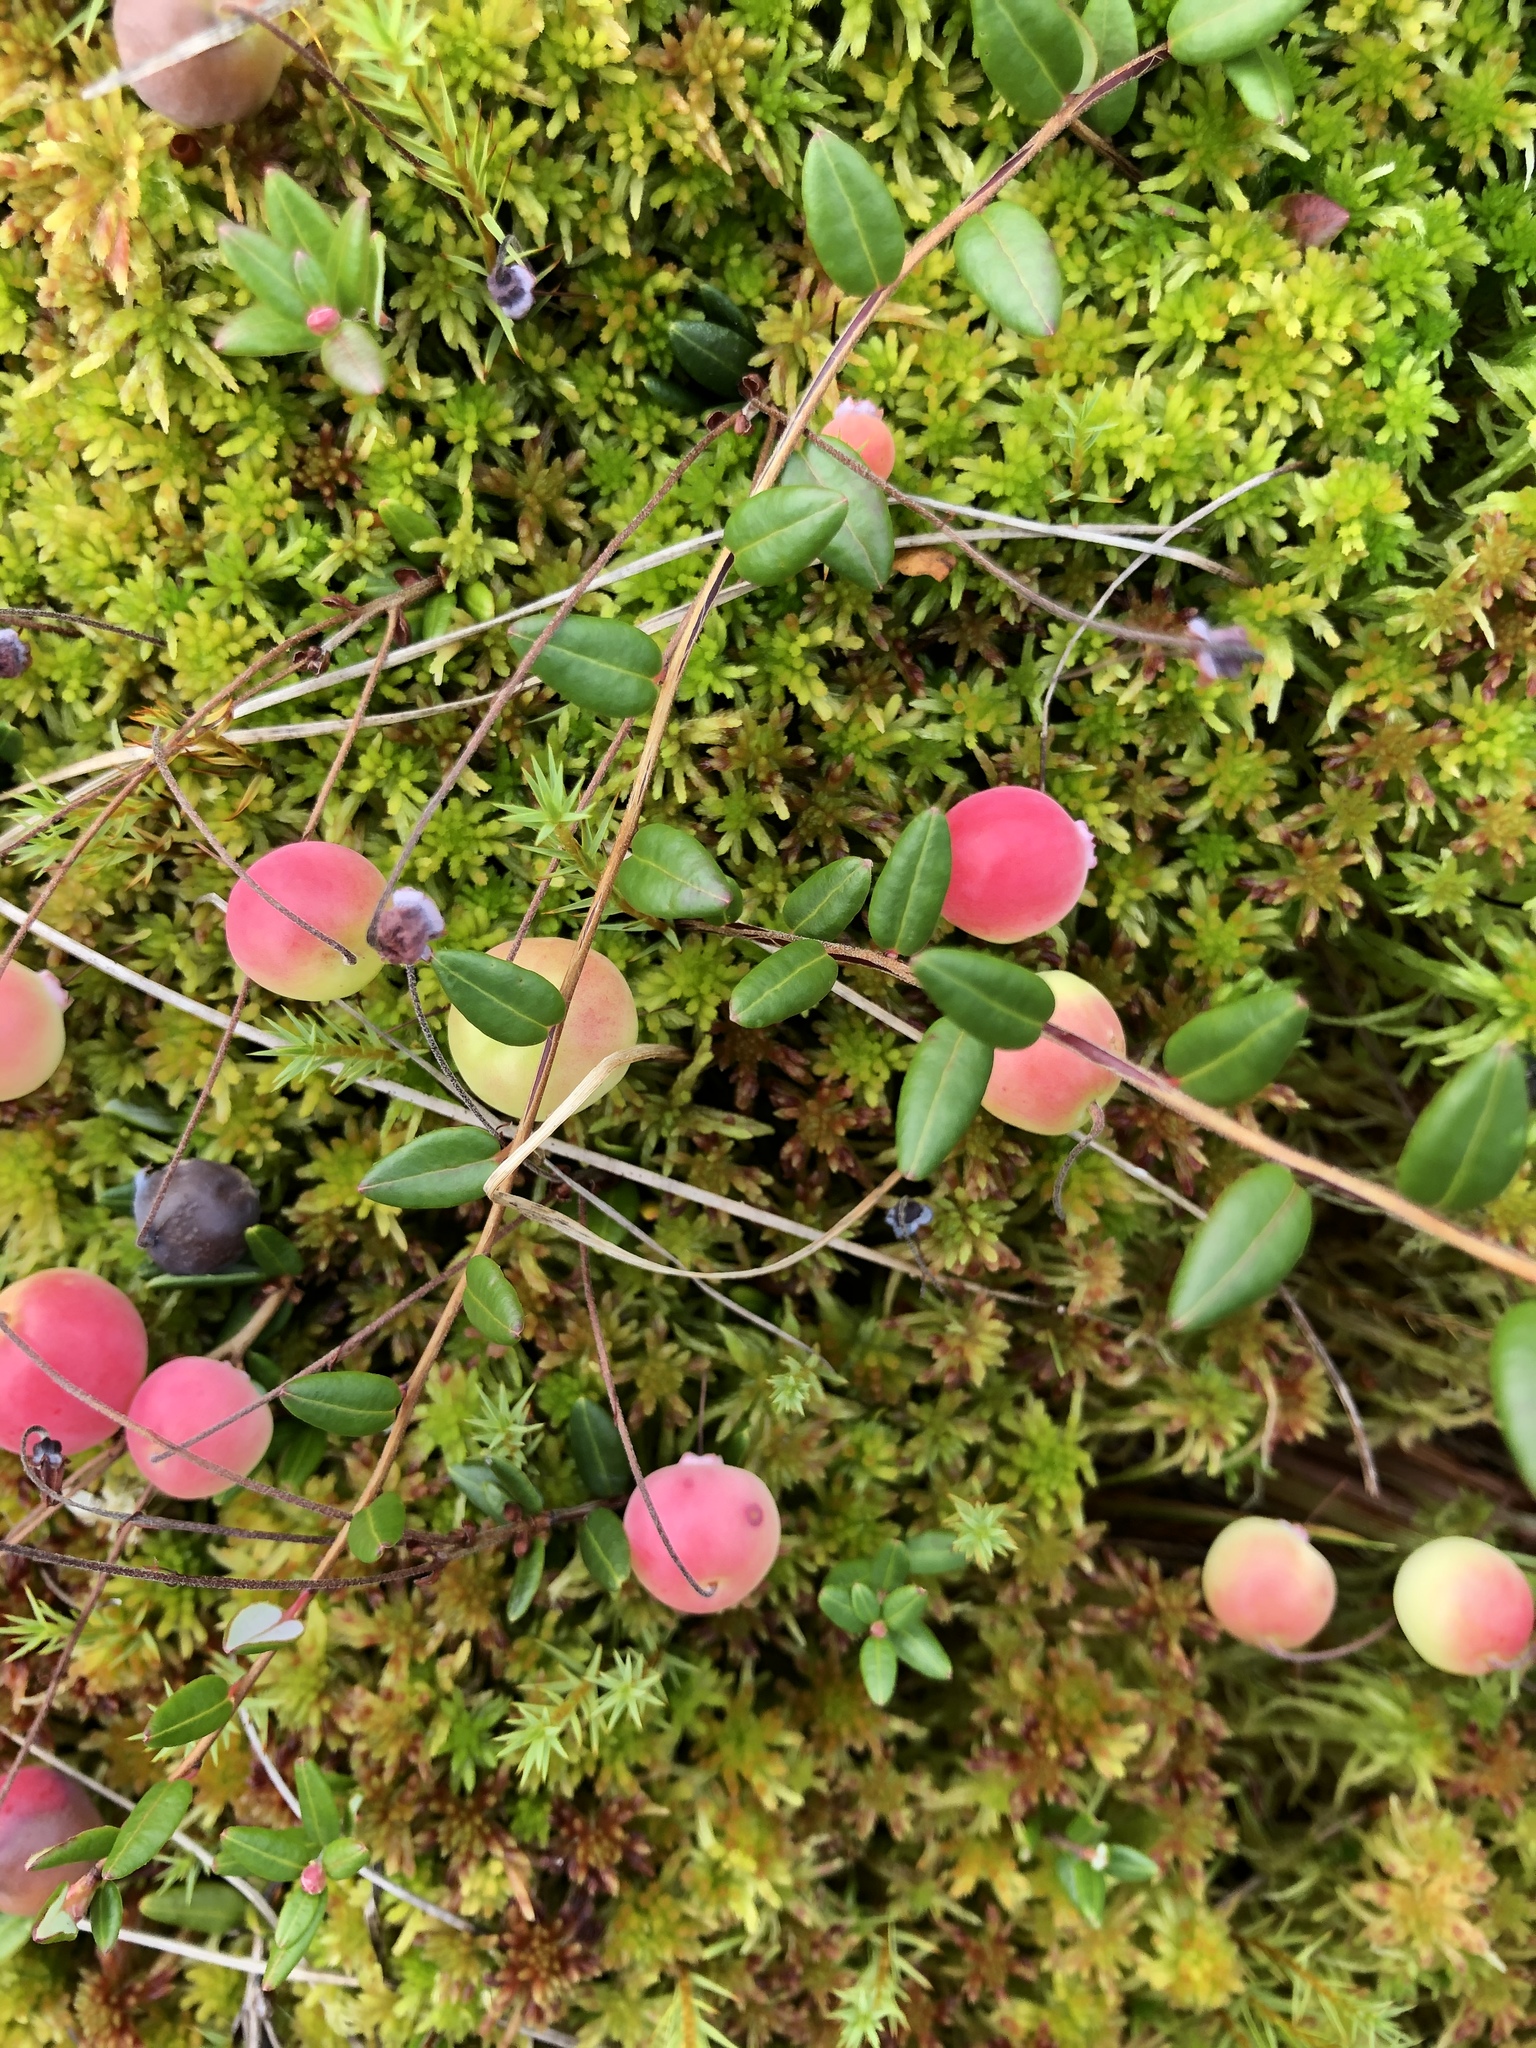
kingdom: Plantae
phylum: Tracheophyta
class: Magnoliopsida
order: Ericales
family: Ericaceae
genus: Vaccinium
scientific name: Vaccinium oxycoccos
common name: Cranberry
